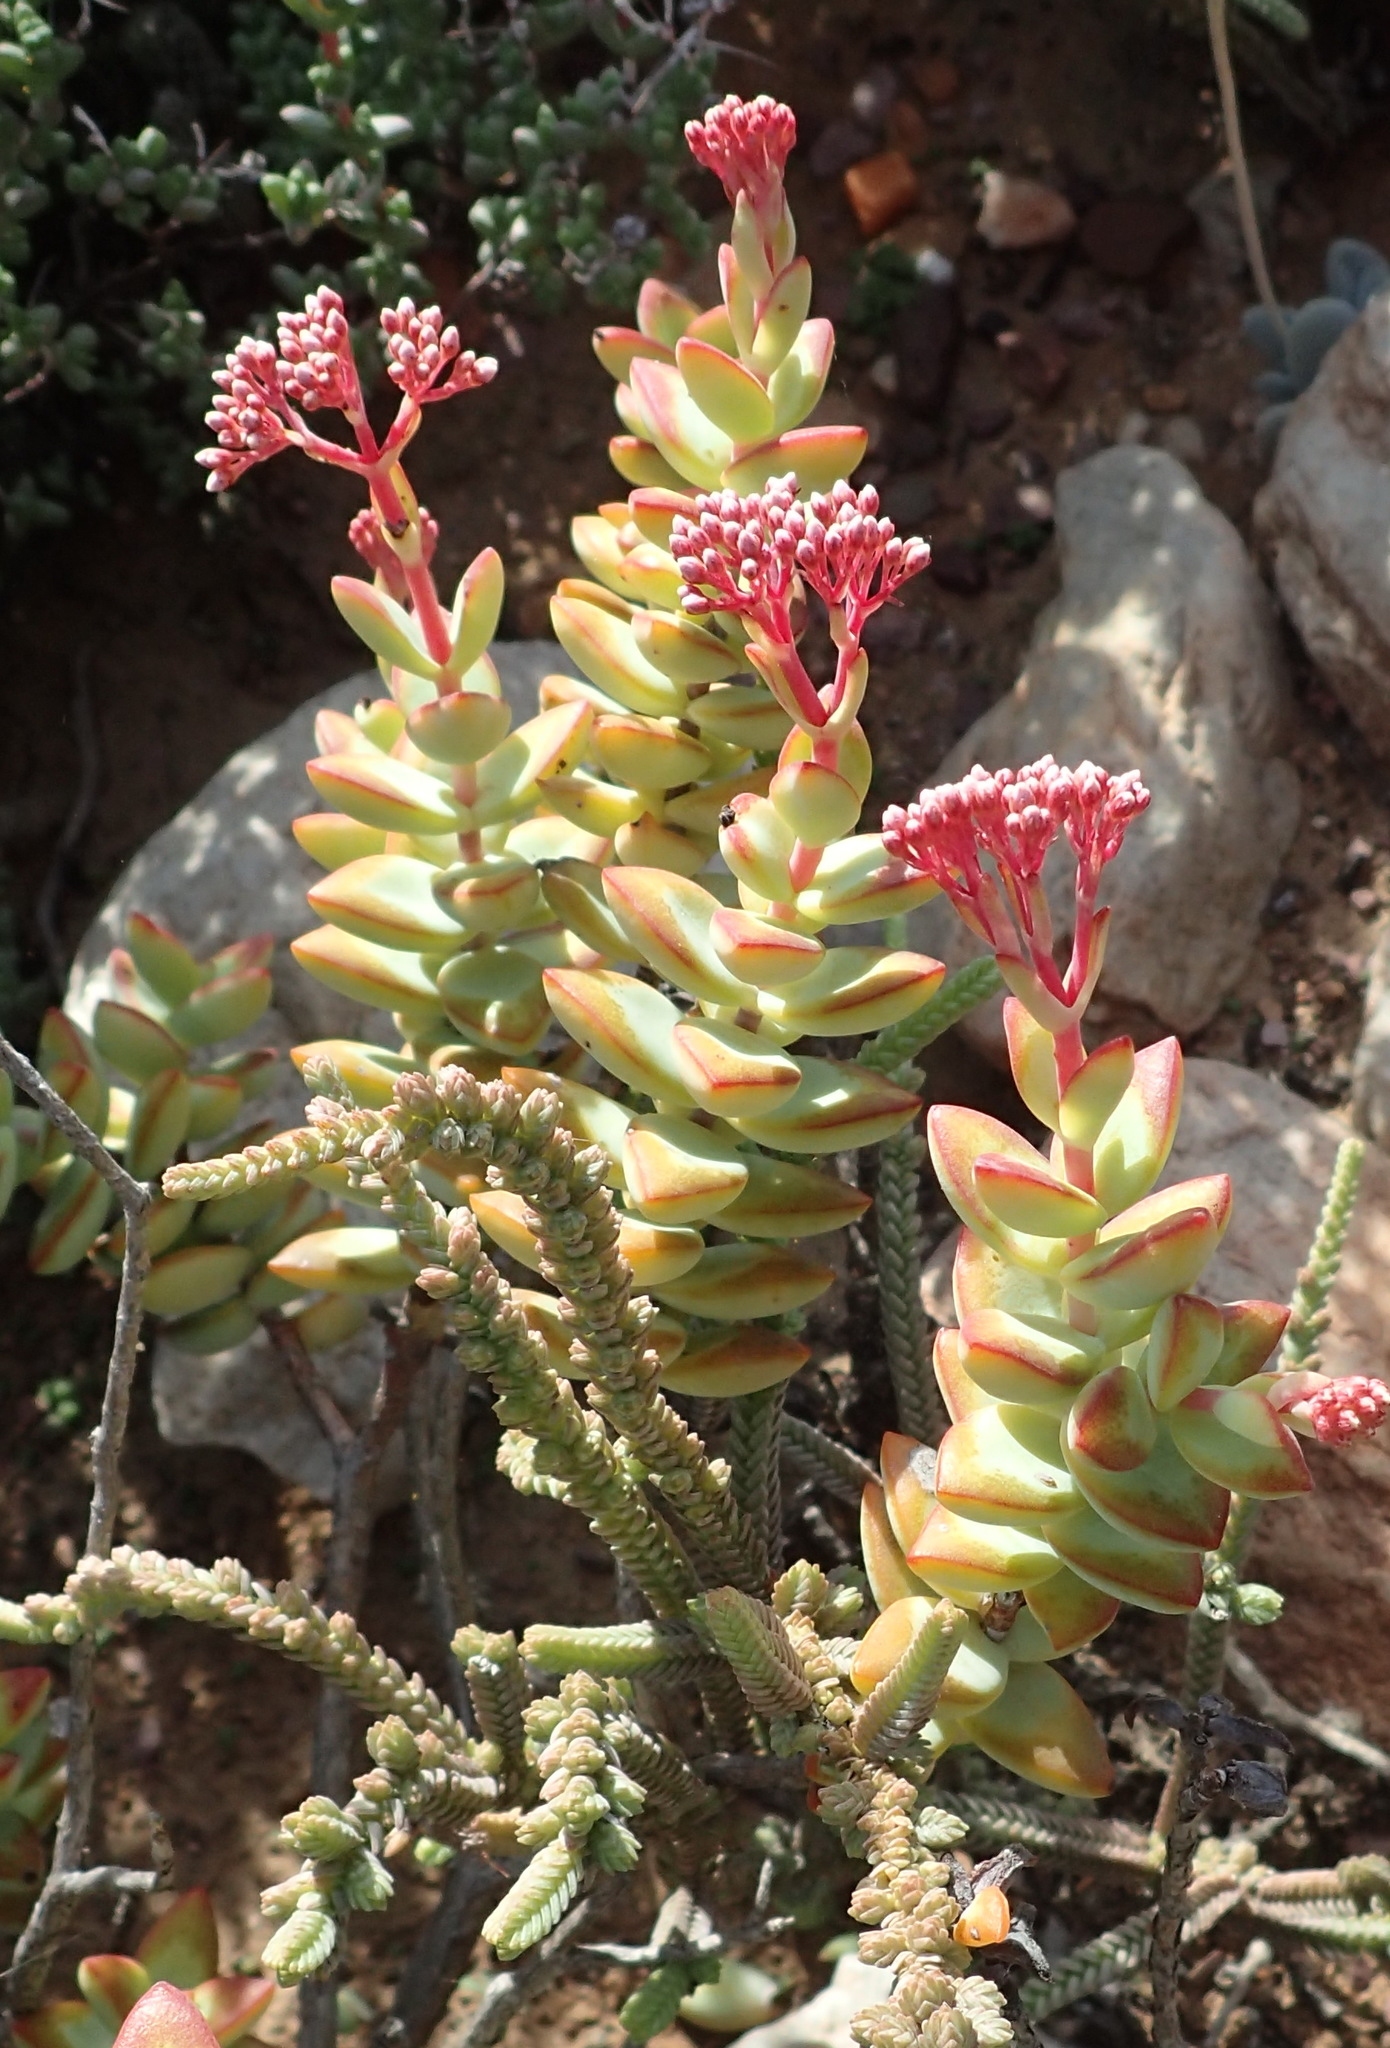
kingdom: Plantae
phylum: Tracheophyta
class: Magnoliopsida
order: Saxifragales
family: Crassulaceae
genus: Crassula
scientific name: Crassula rupestris
